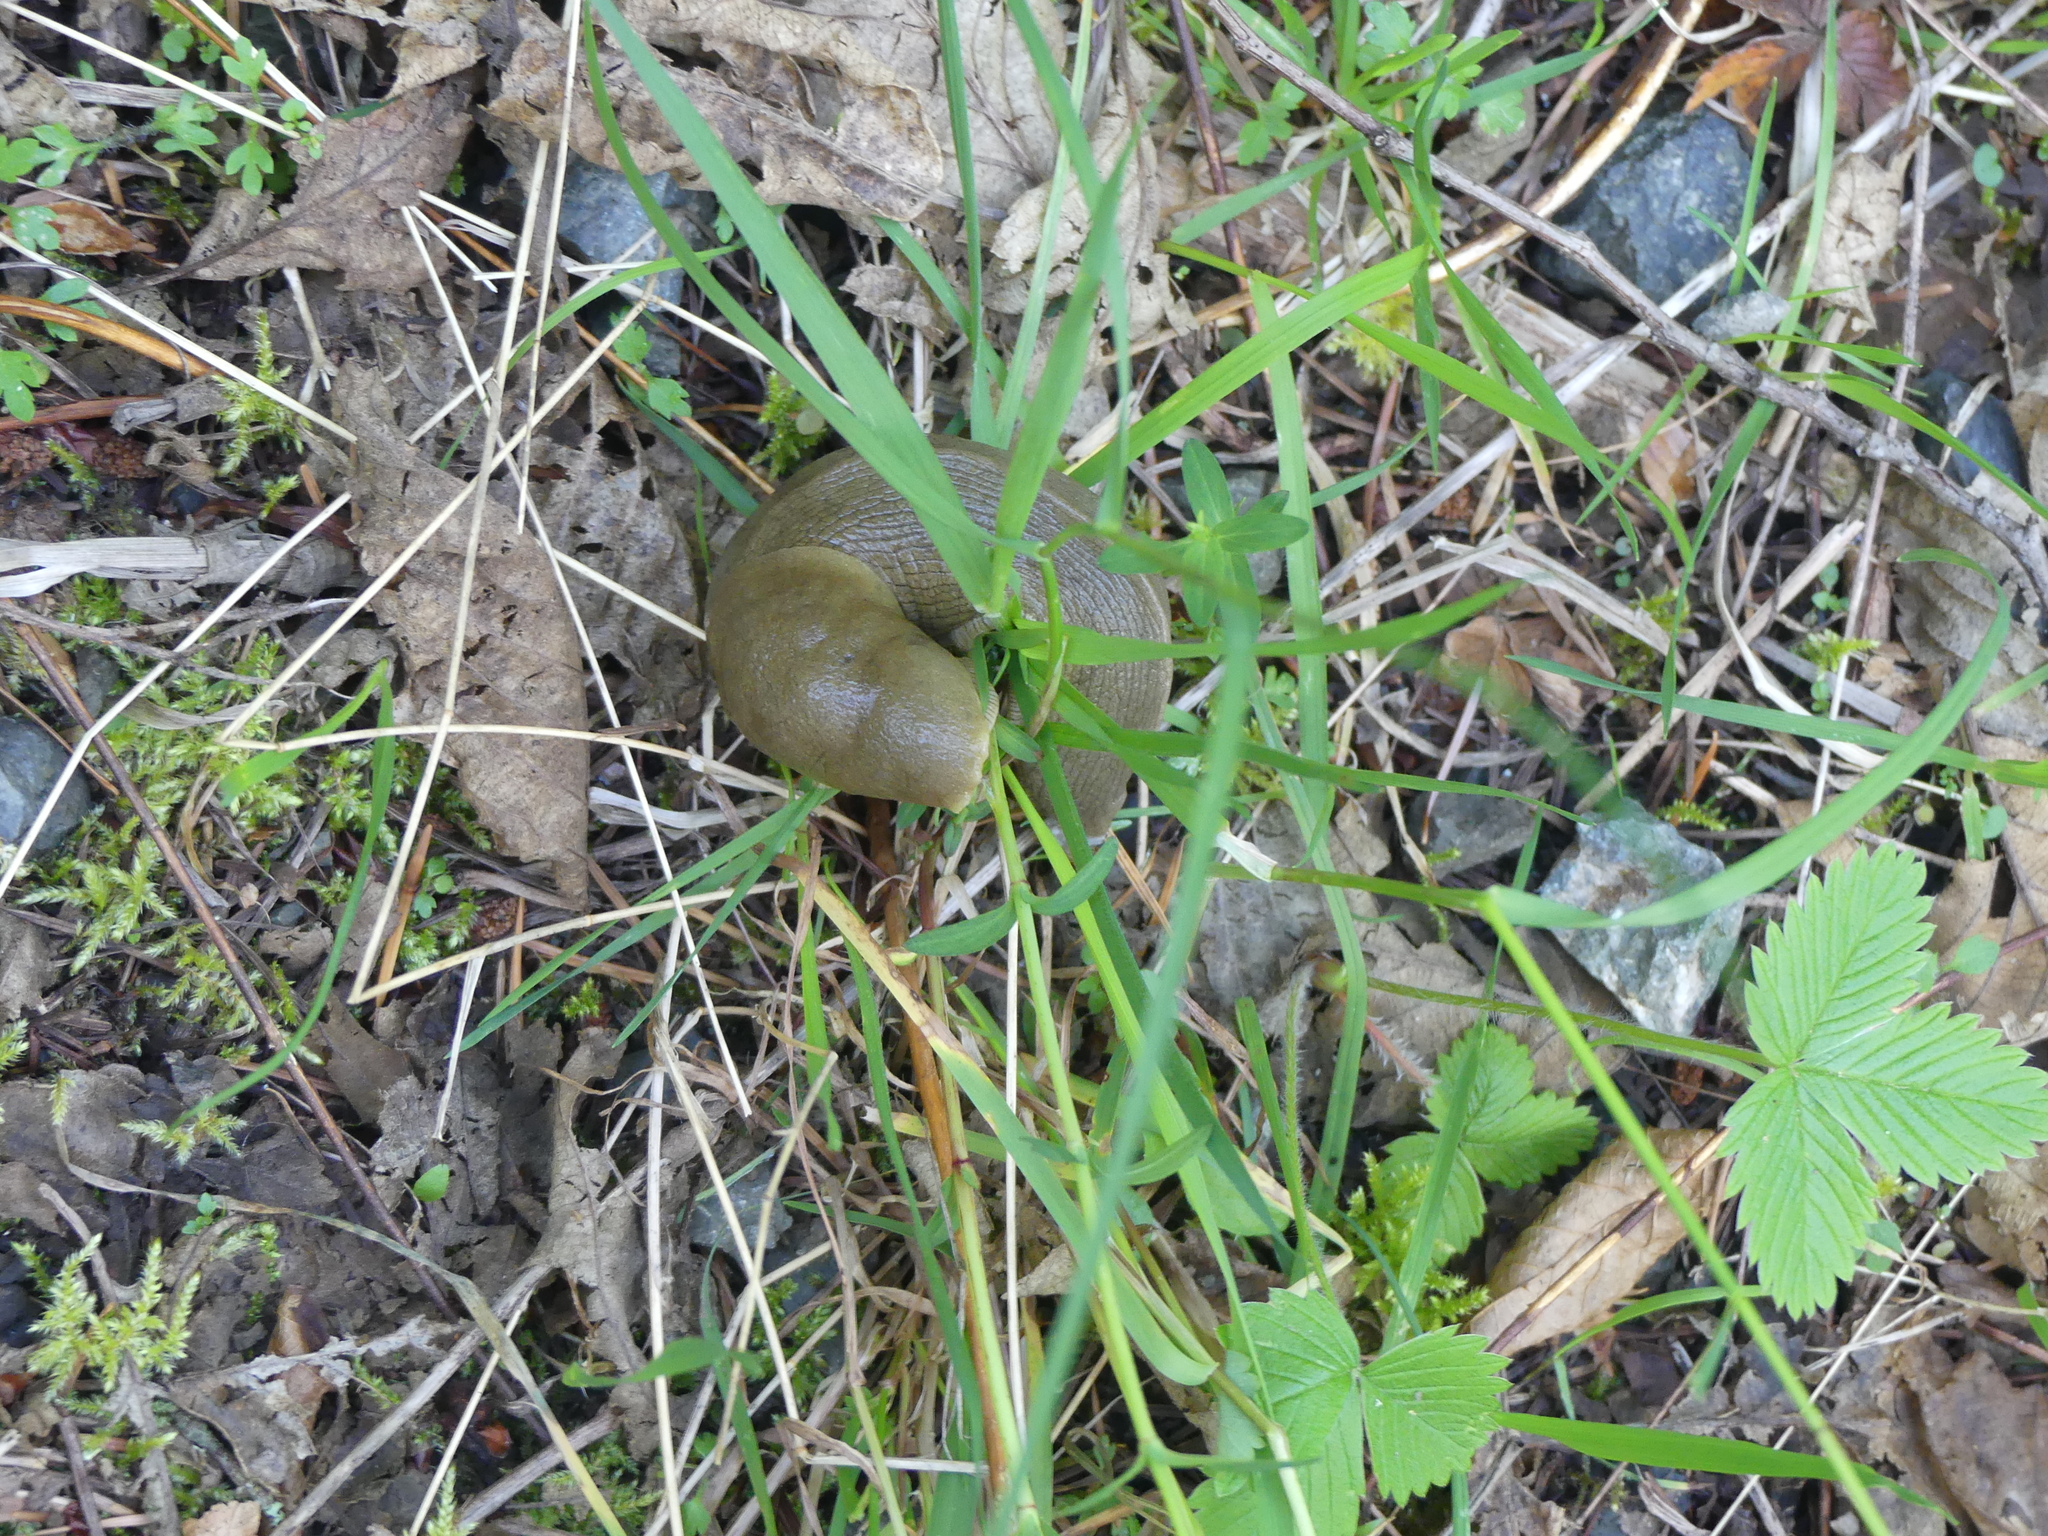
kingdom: Animalia
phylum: Mollusca
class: Gastropoda
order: Stylommatophora
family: Ariolimacidae
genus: Ariolimax
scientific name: Ariolimax columbianus
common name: Pacific banana slug
